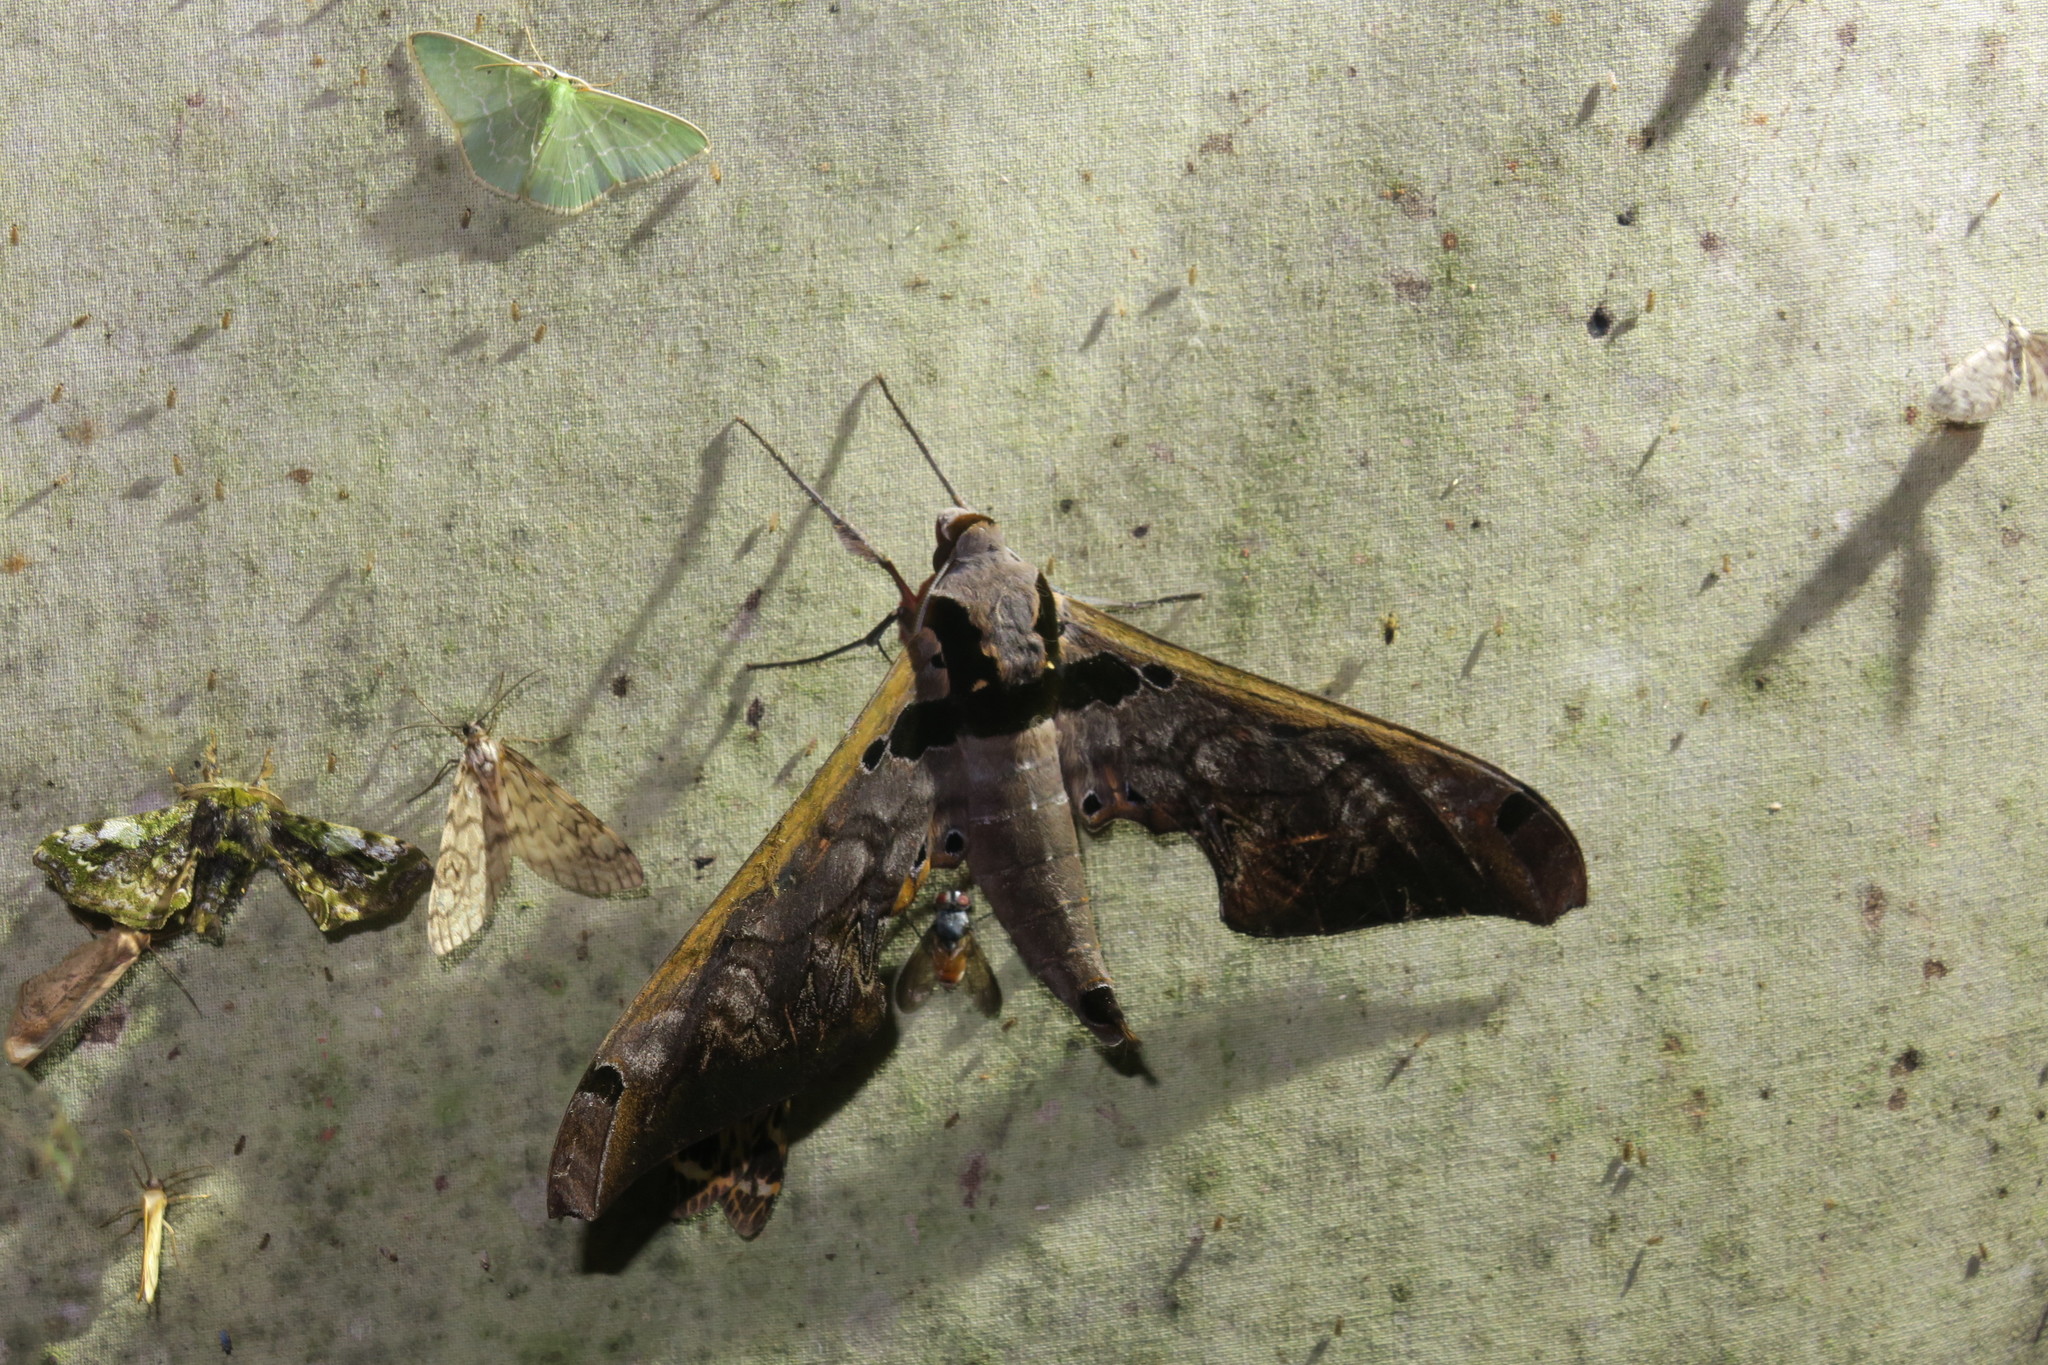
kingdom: Animalia
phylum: Arthropoda
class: Insecta
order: Lepidoptera
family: Sphingidae
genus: Adhemarius
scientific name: Adhemarius sexoculata
